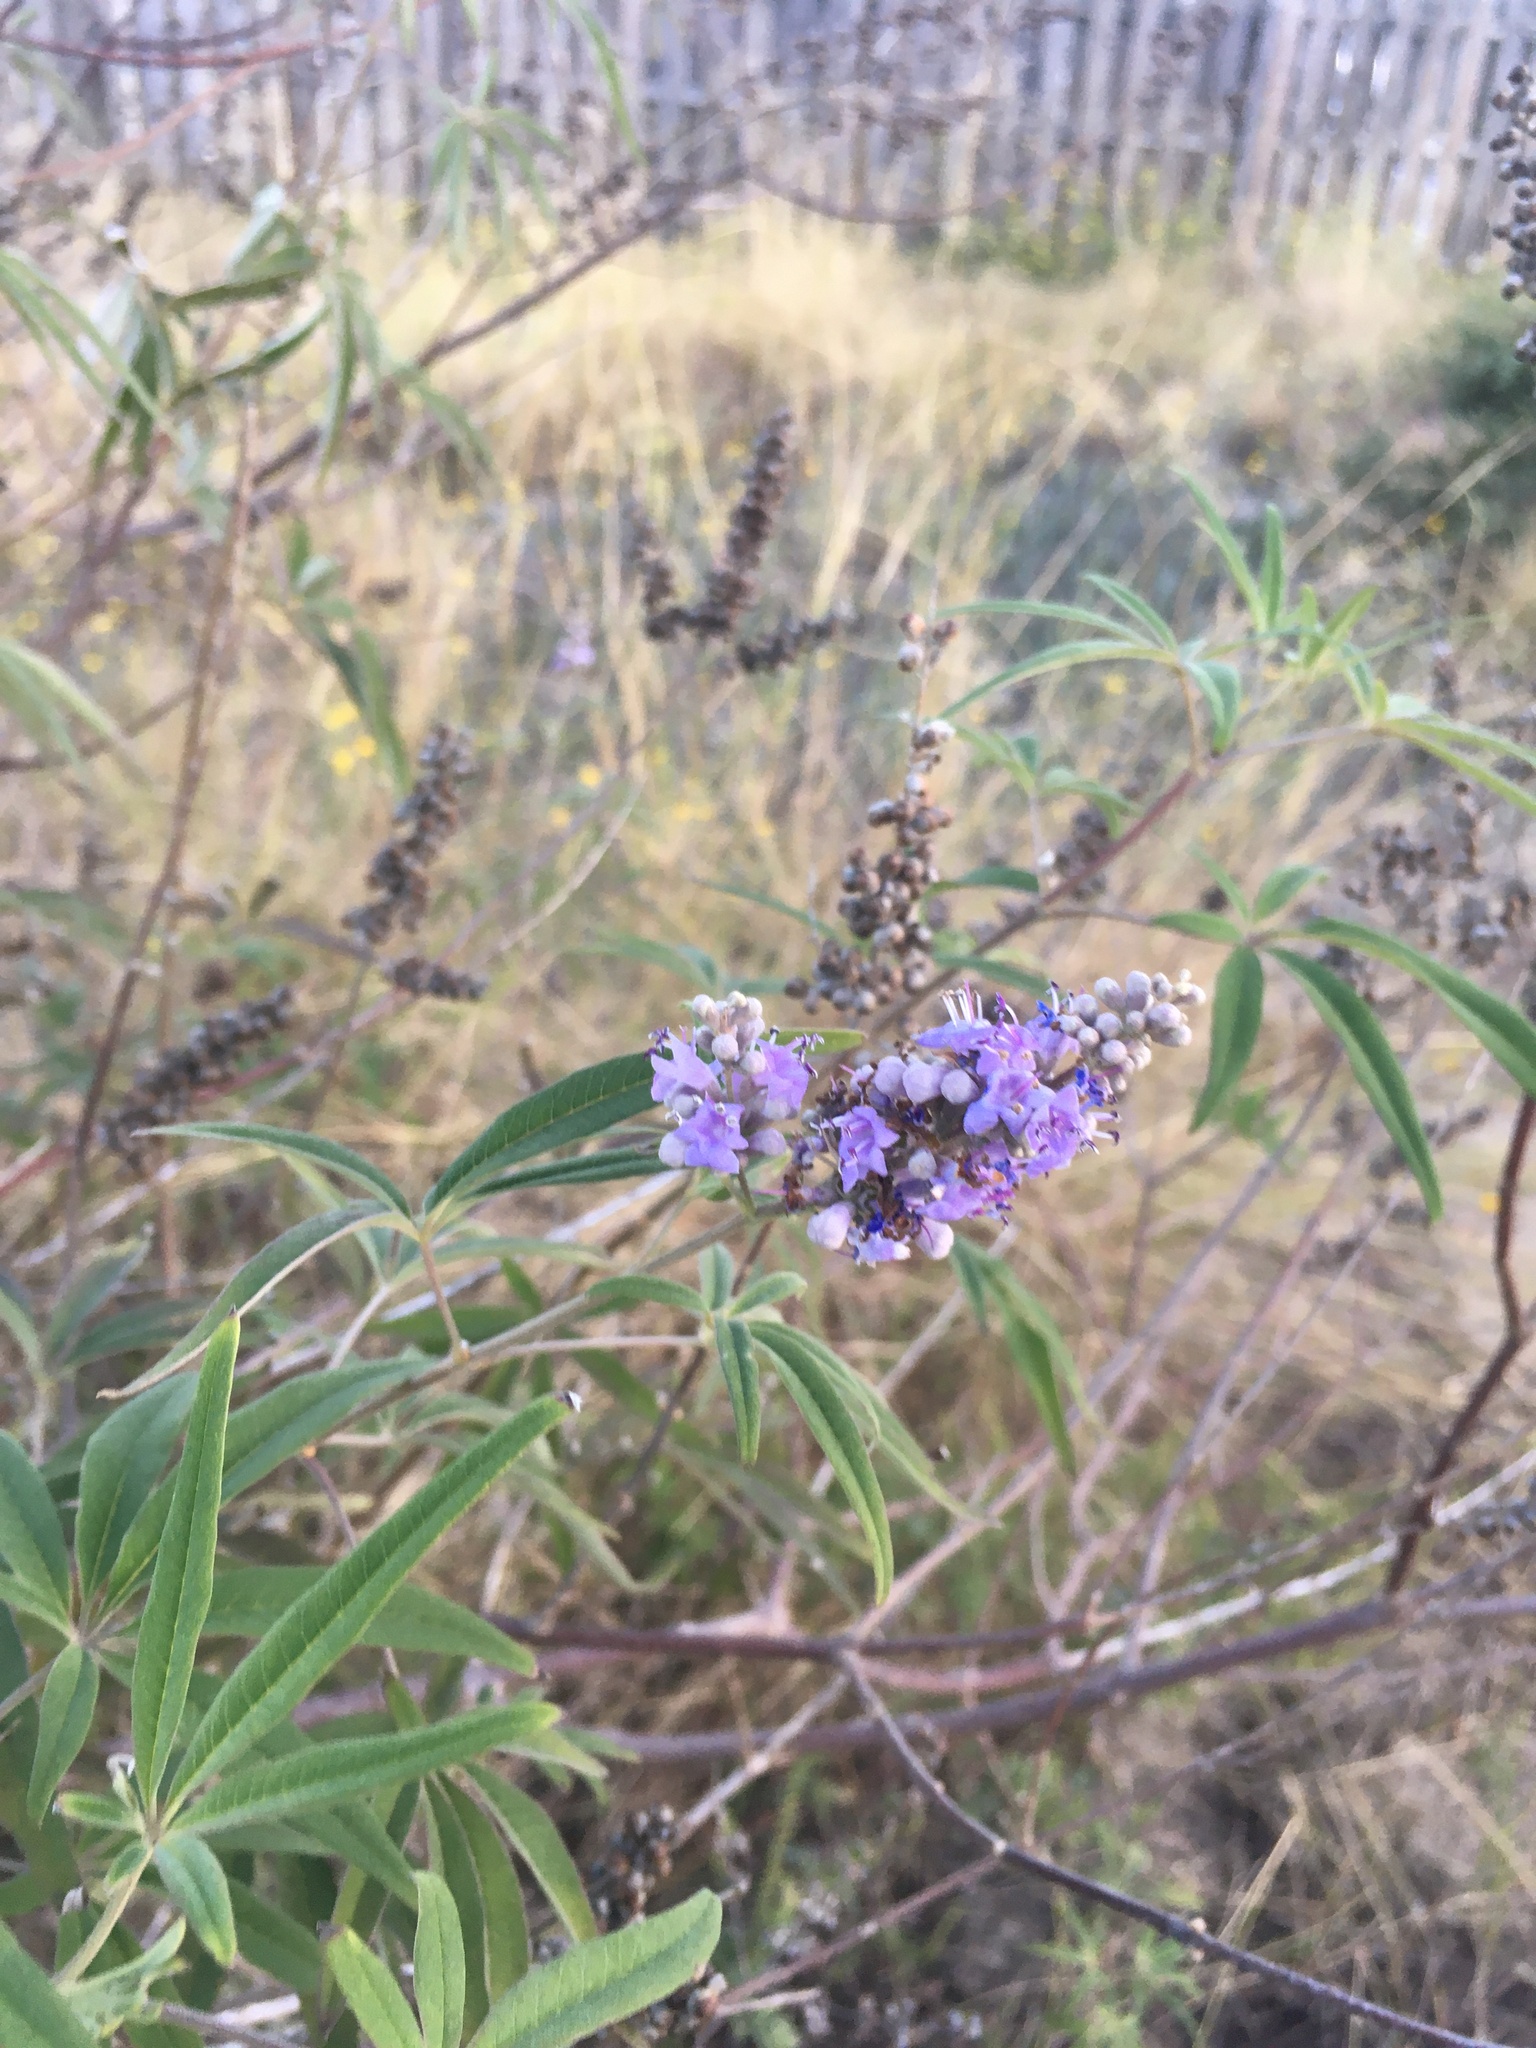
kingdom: Plantae
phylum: Tracheophyta
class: Magnoliopsida
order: Lamiales
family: Lamiaceae
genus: Vitex
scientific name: Vitex agnus-castus
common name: Chasteberry
